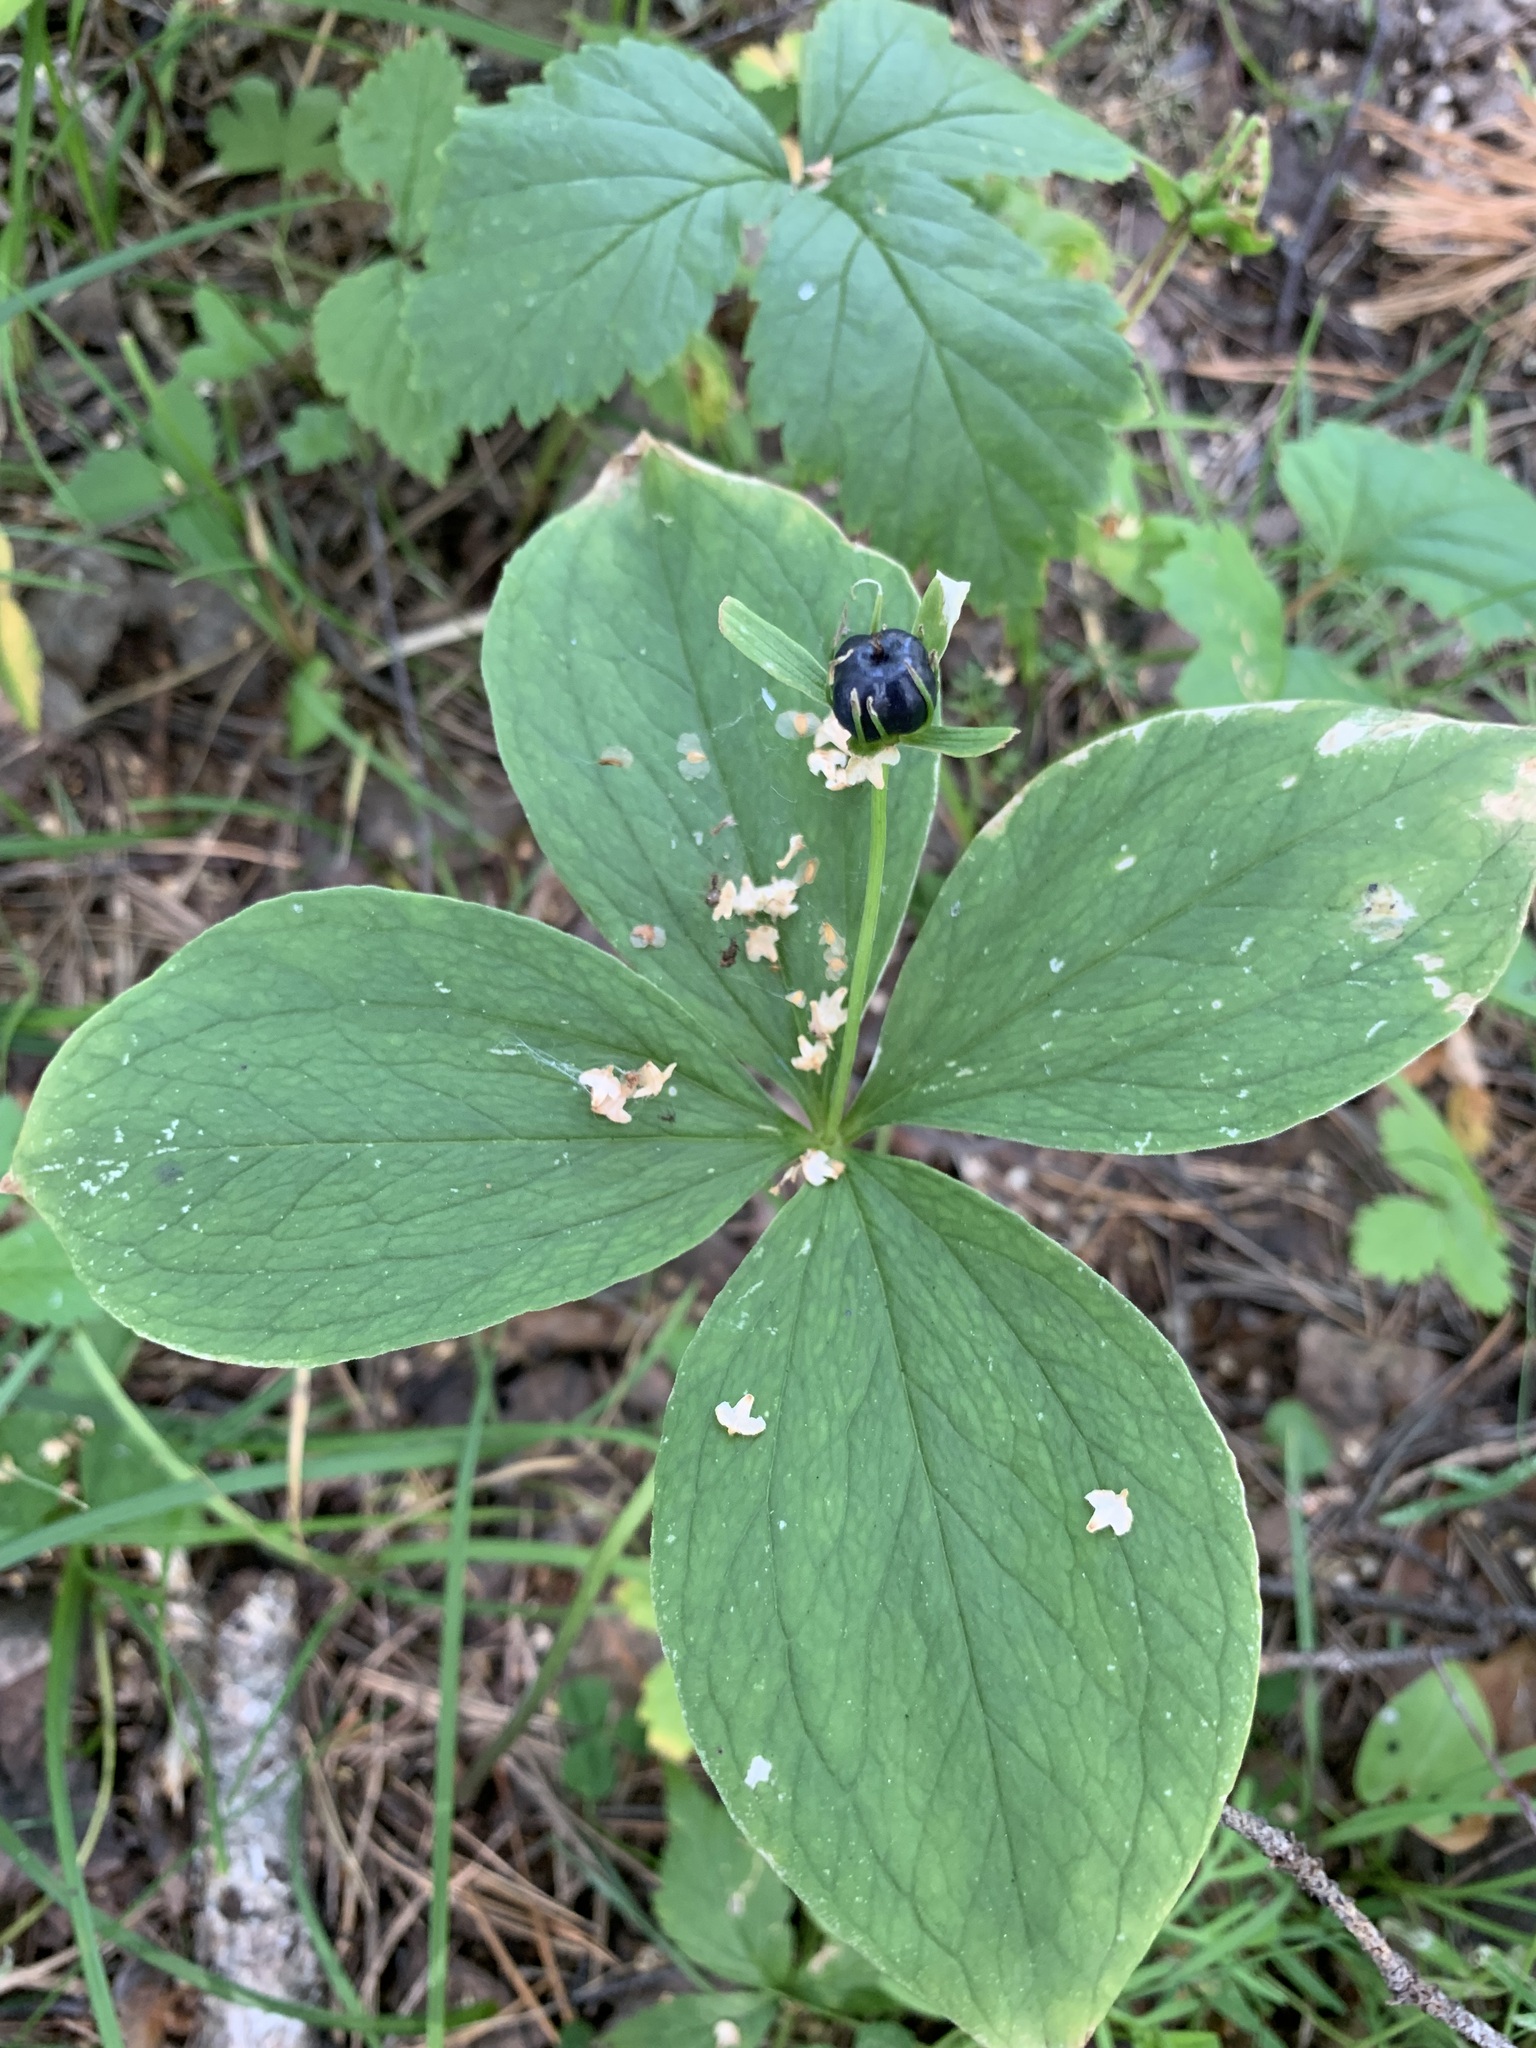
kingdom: Plantae
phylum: Tracheophyta
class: Liliopsida
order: Liliales
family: Melanthiaceae
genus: Paris
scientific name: Paris quadrifolia
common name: Herb-paris
